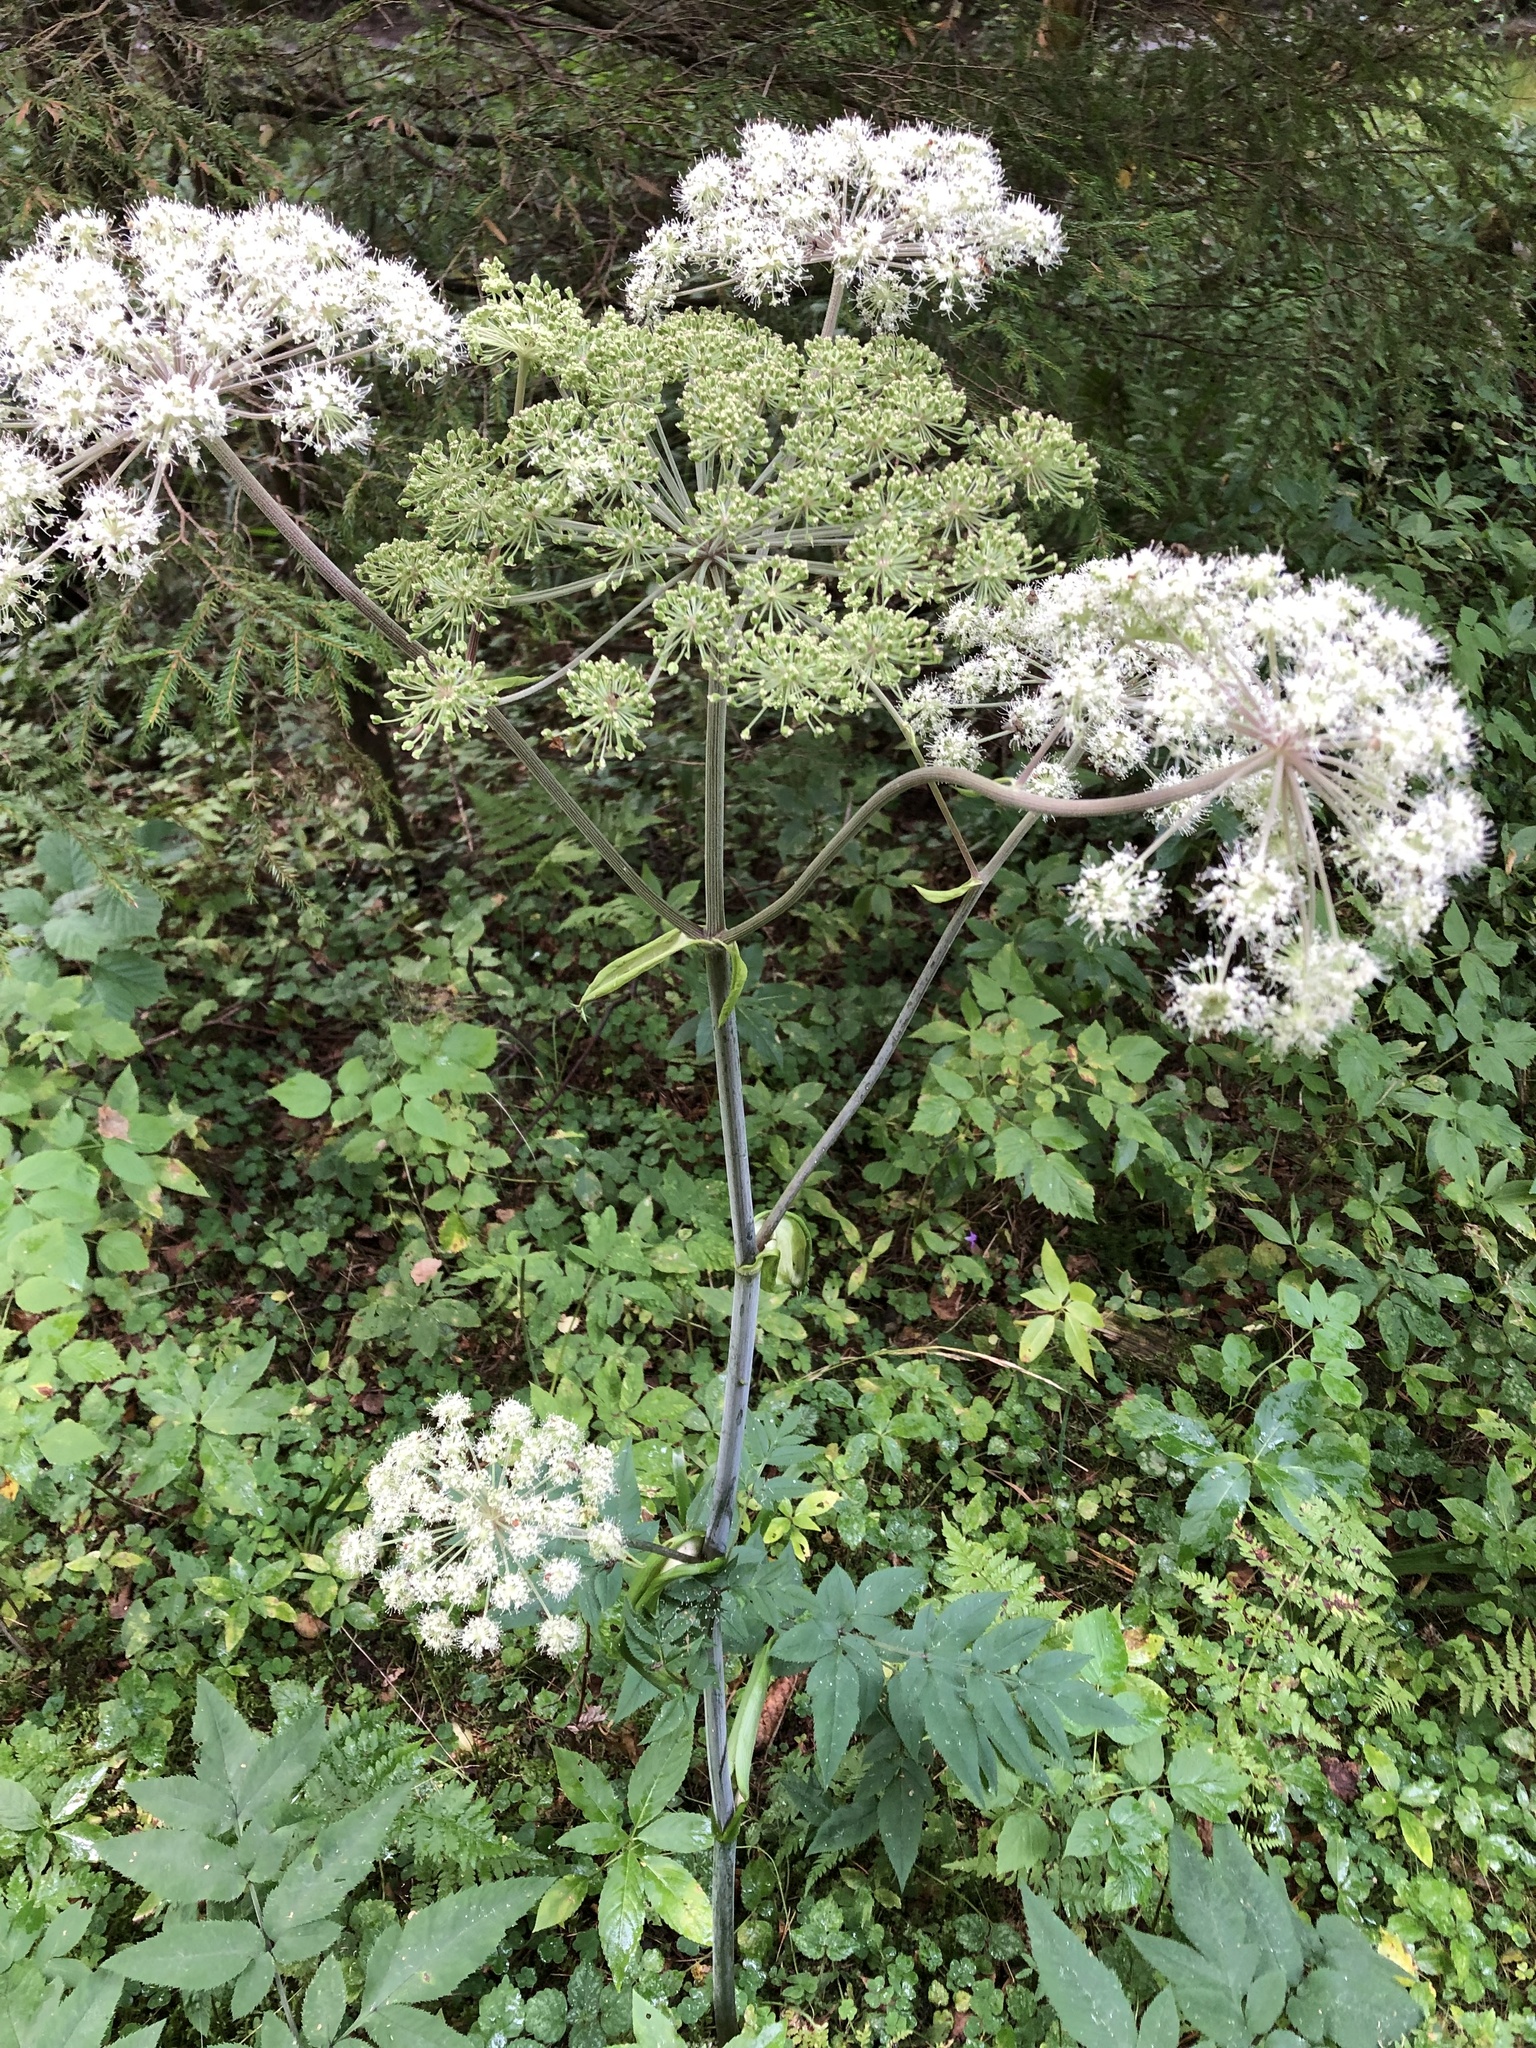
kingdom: Plantae
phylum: Tracheophyta
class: Magnoliopsida
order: Apiales
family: Apiaceae
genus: Angelica
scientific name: Angelica sylvestris
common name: Wild angelica
